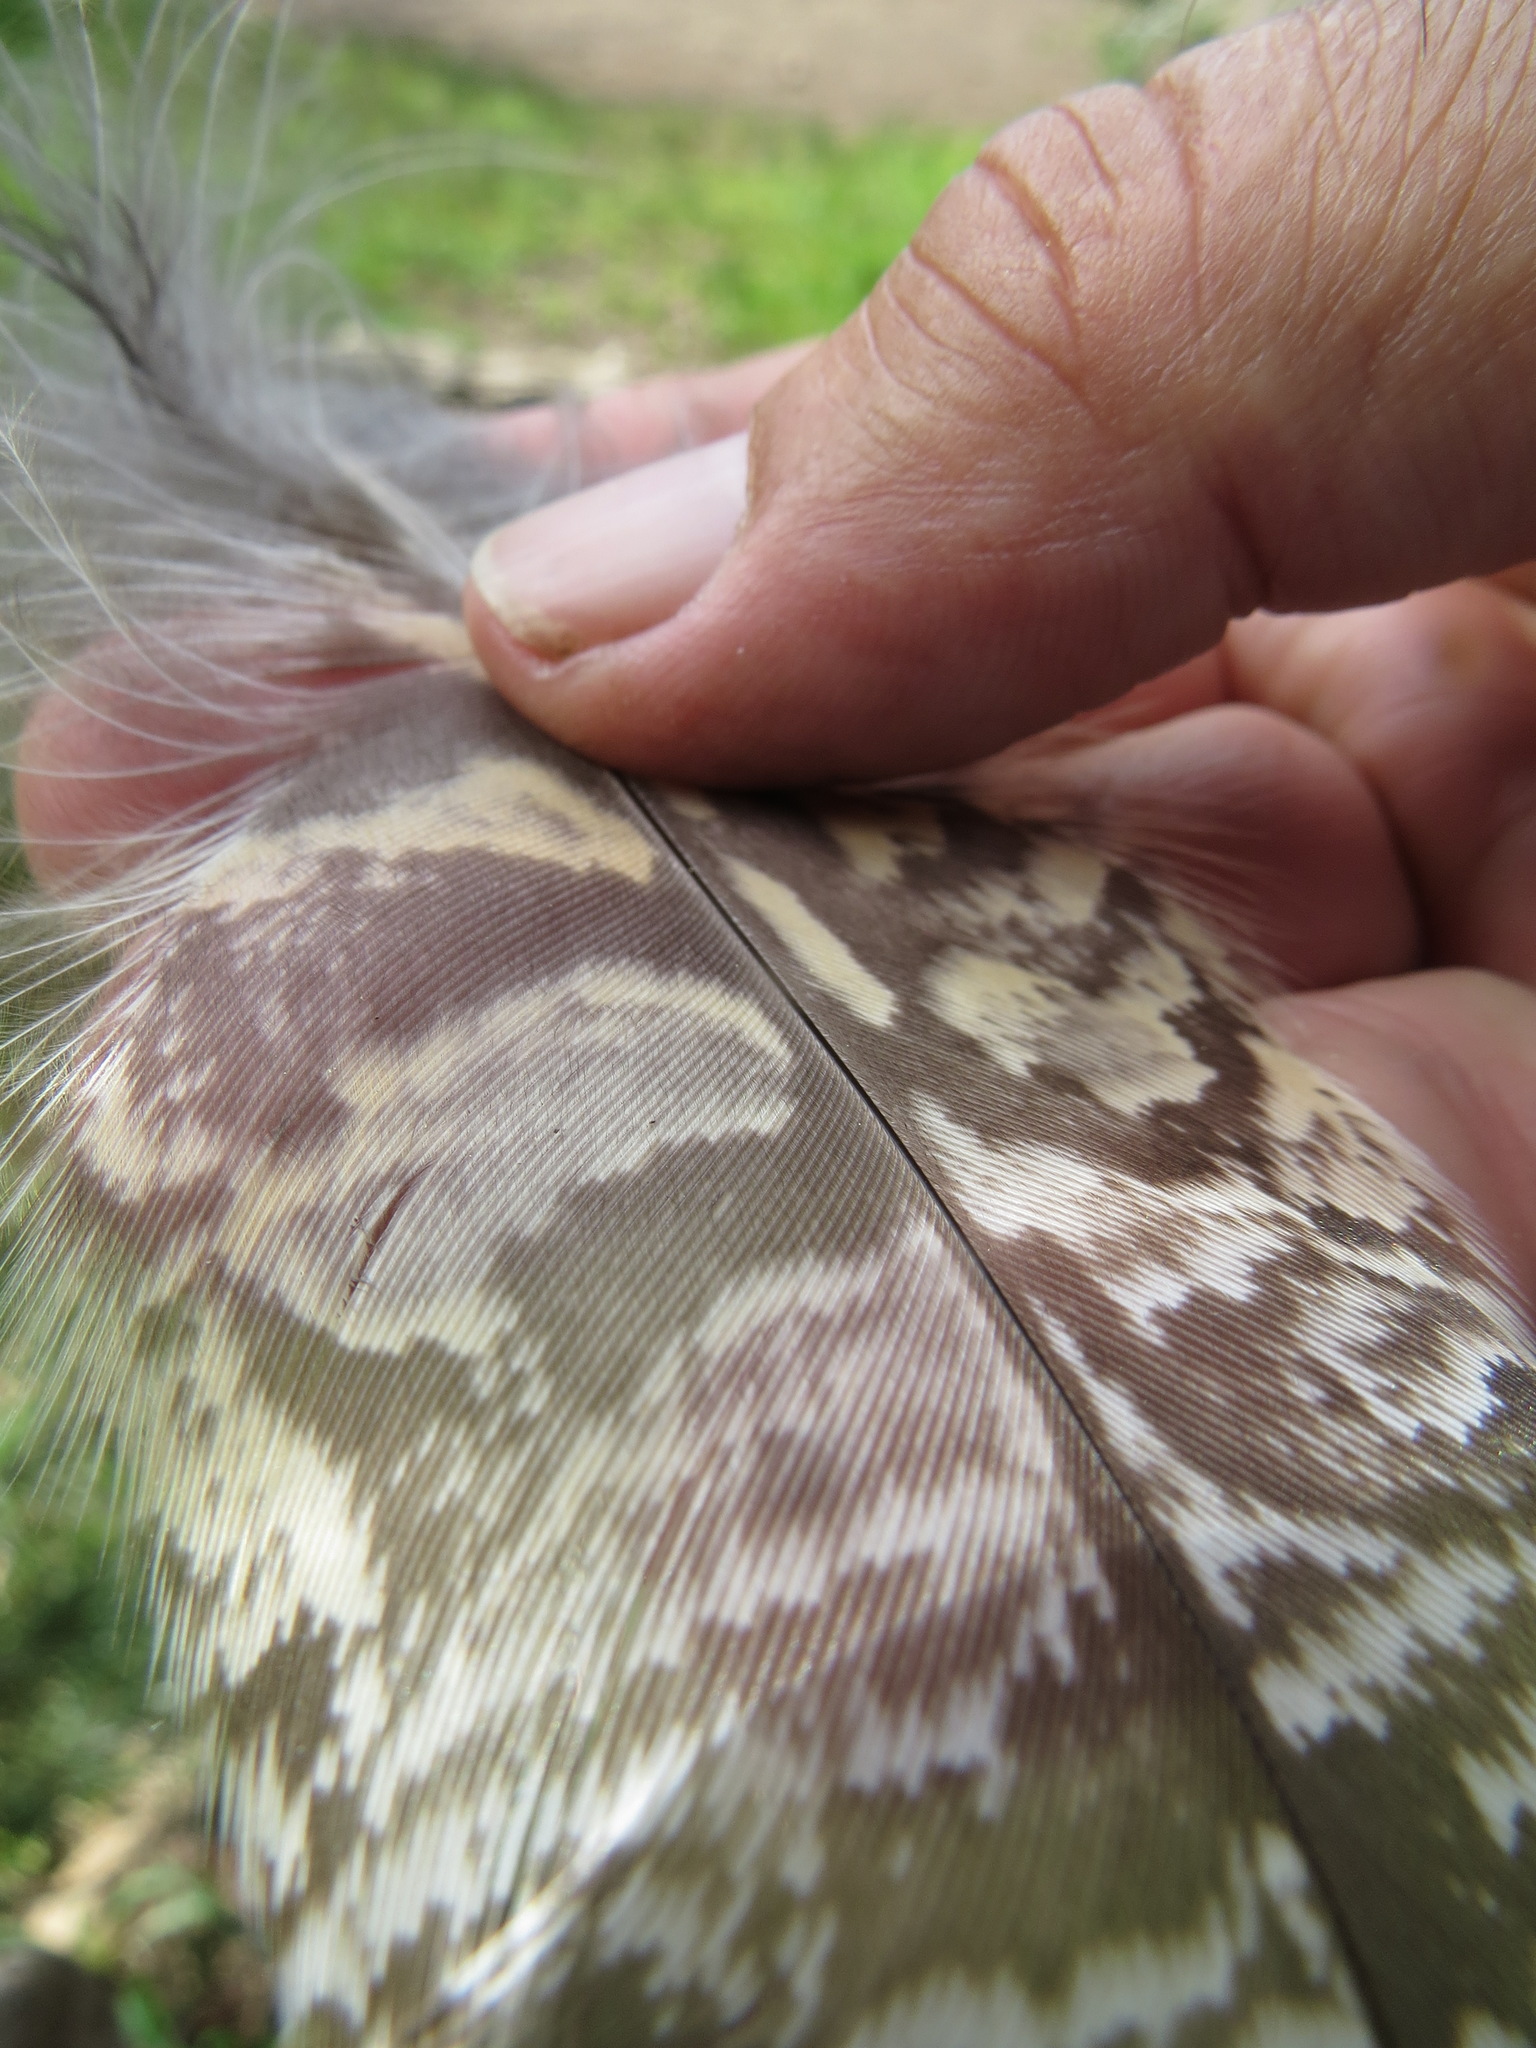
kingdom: Animalia
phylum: Chordata
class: Aves
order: Strigiformes
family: Strigidae
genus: Bubo
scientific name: Bubo virginianus
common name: Great horned owl
